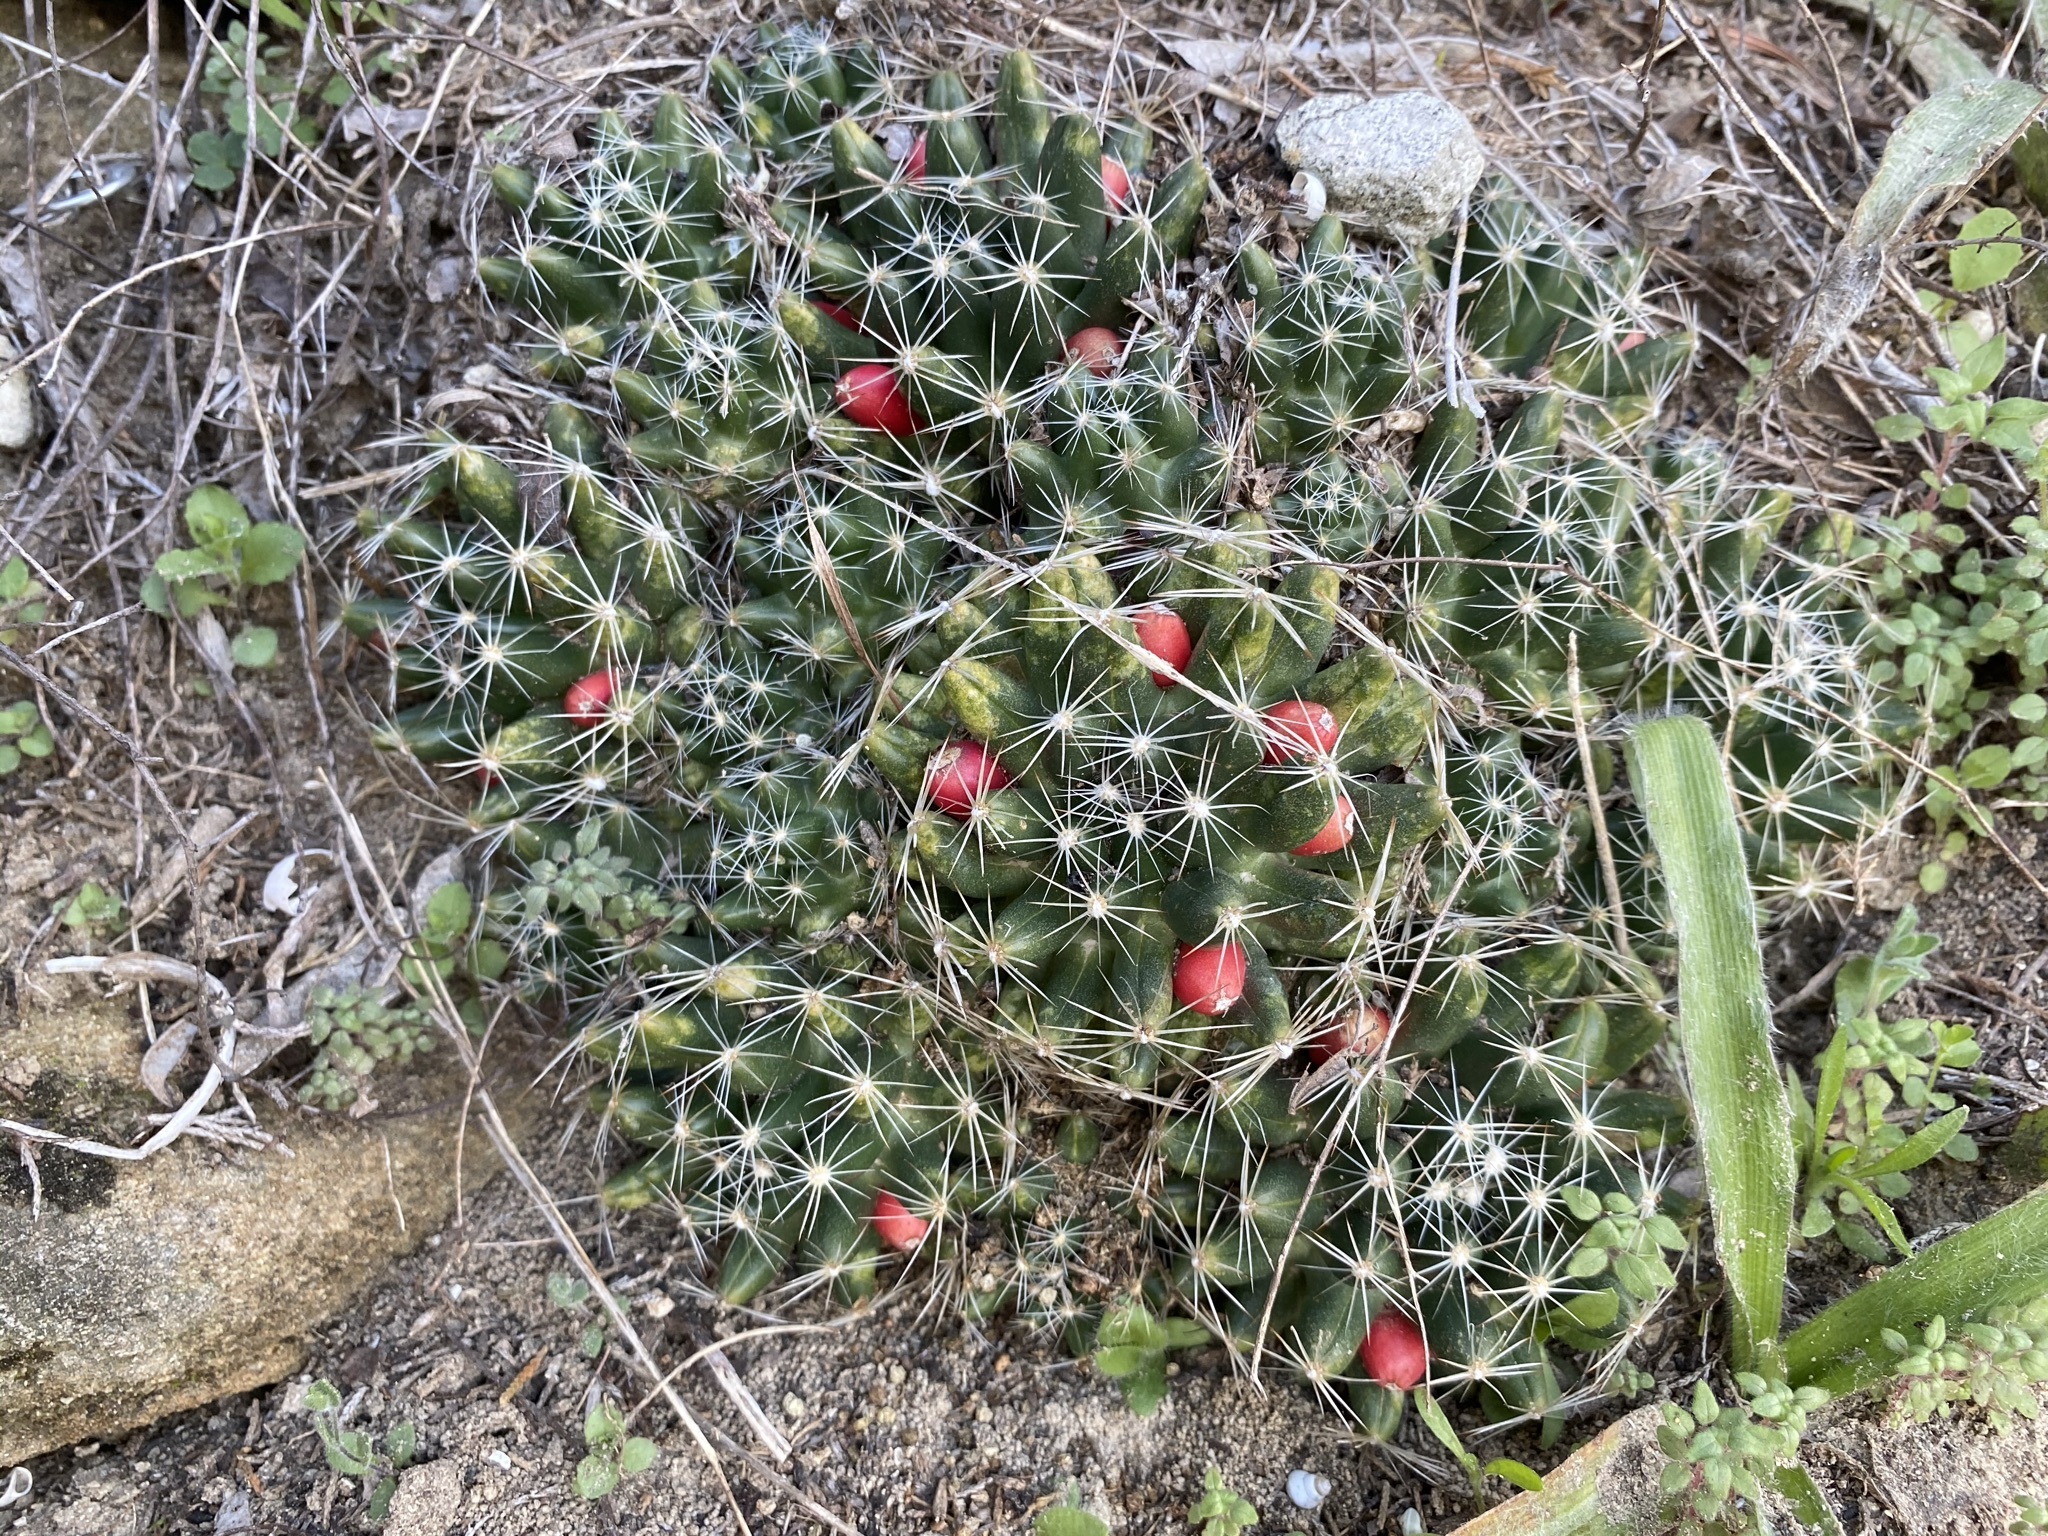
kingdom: Plantae
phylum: Tracheophyta
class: Magnoliopsida
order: Caryophyllales
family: Cactaceae
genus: Pelecyphora
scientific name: Pelecyphora missouriensis
